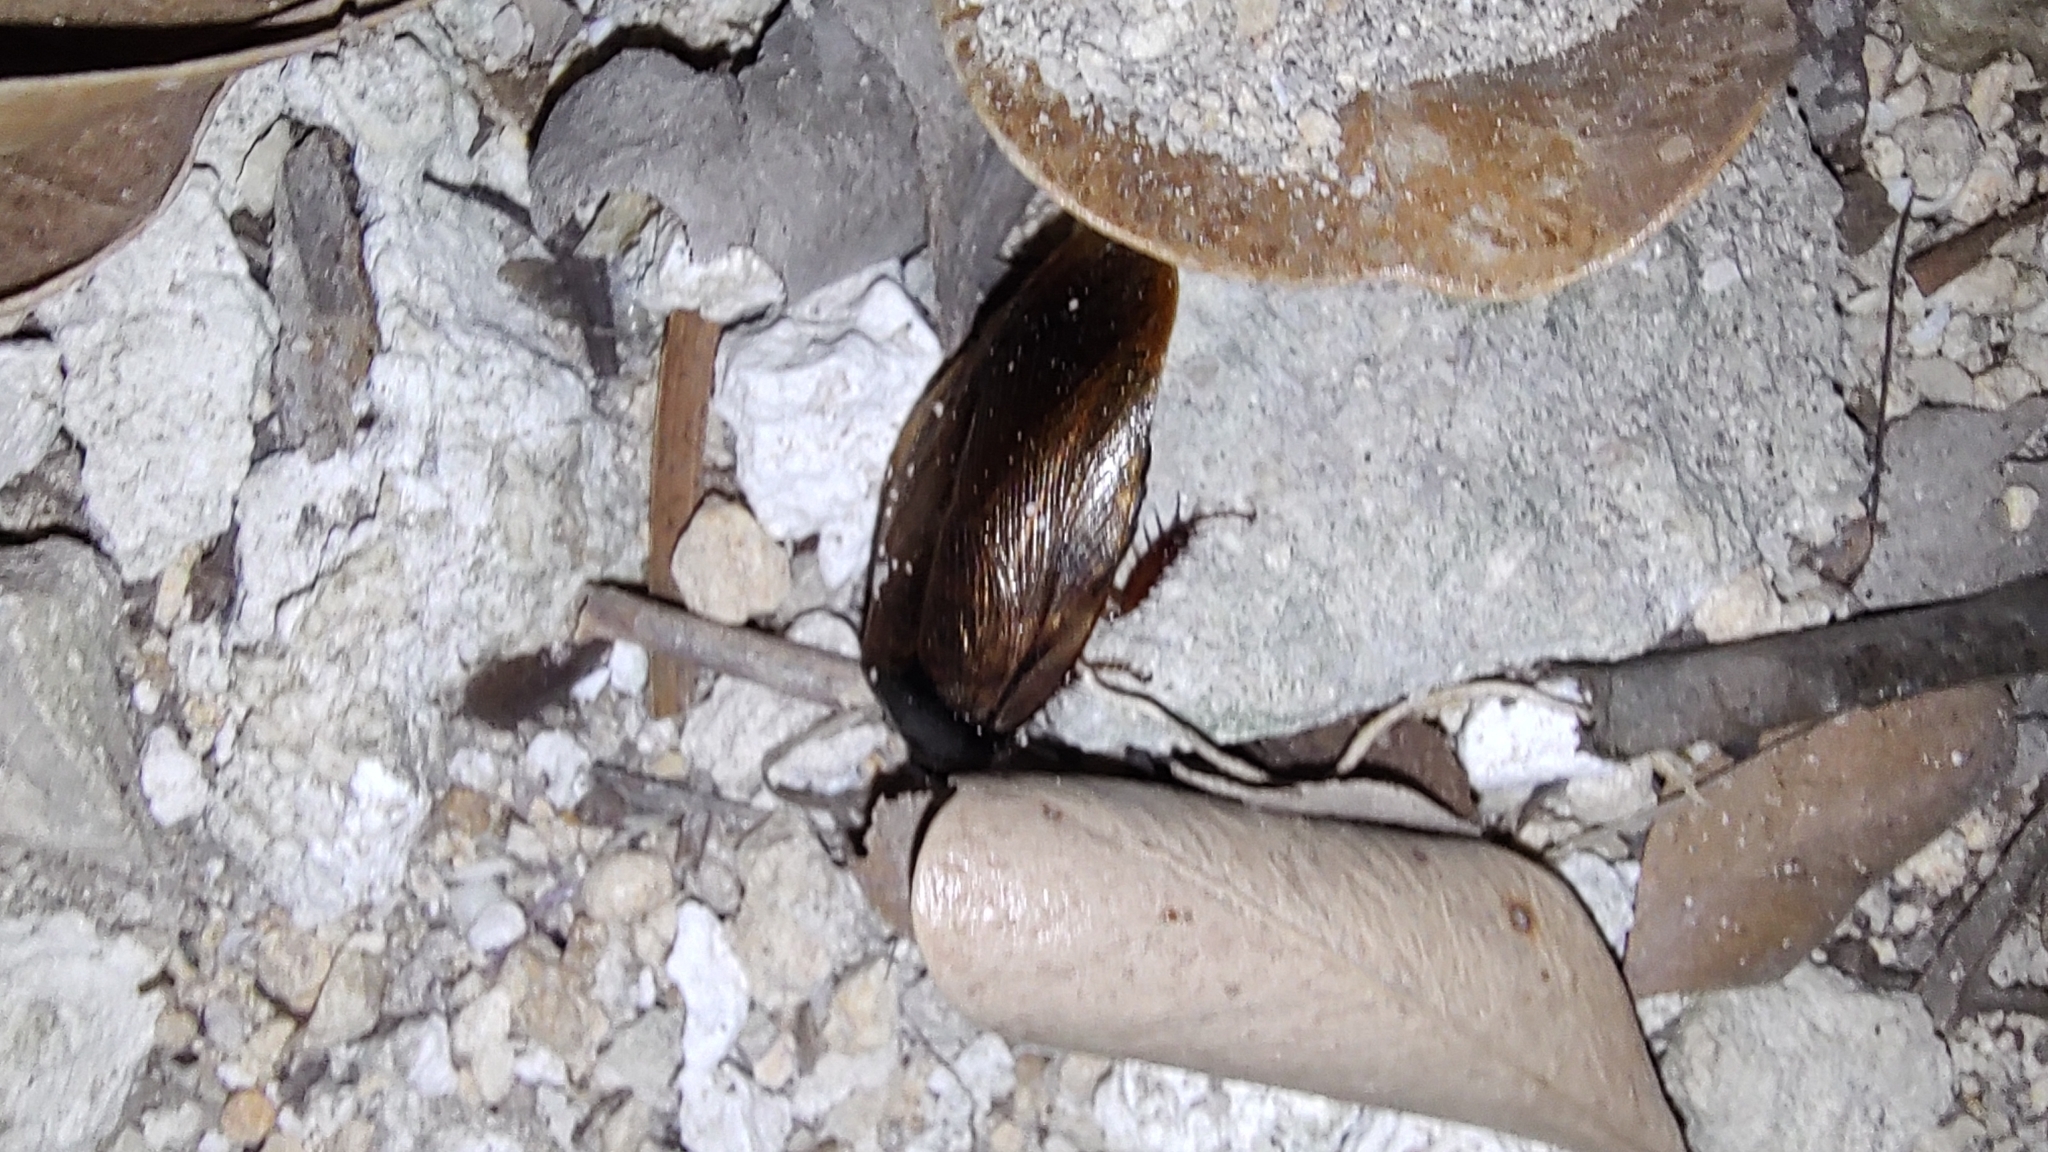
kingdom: Animalia
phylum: Arthropoda
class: Insecta
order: Blattodea
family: Blaberidae
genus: Pycnoscelus
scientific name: Pycnoscelus surinamensis
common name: Surinam cockroach
